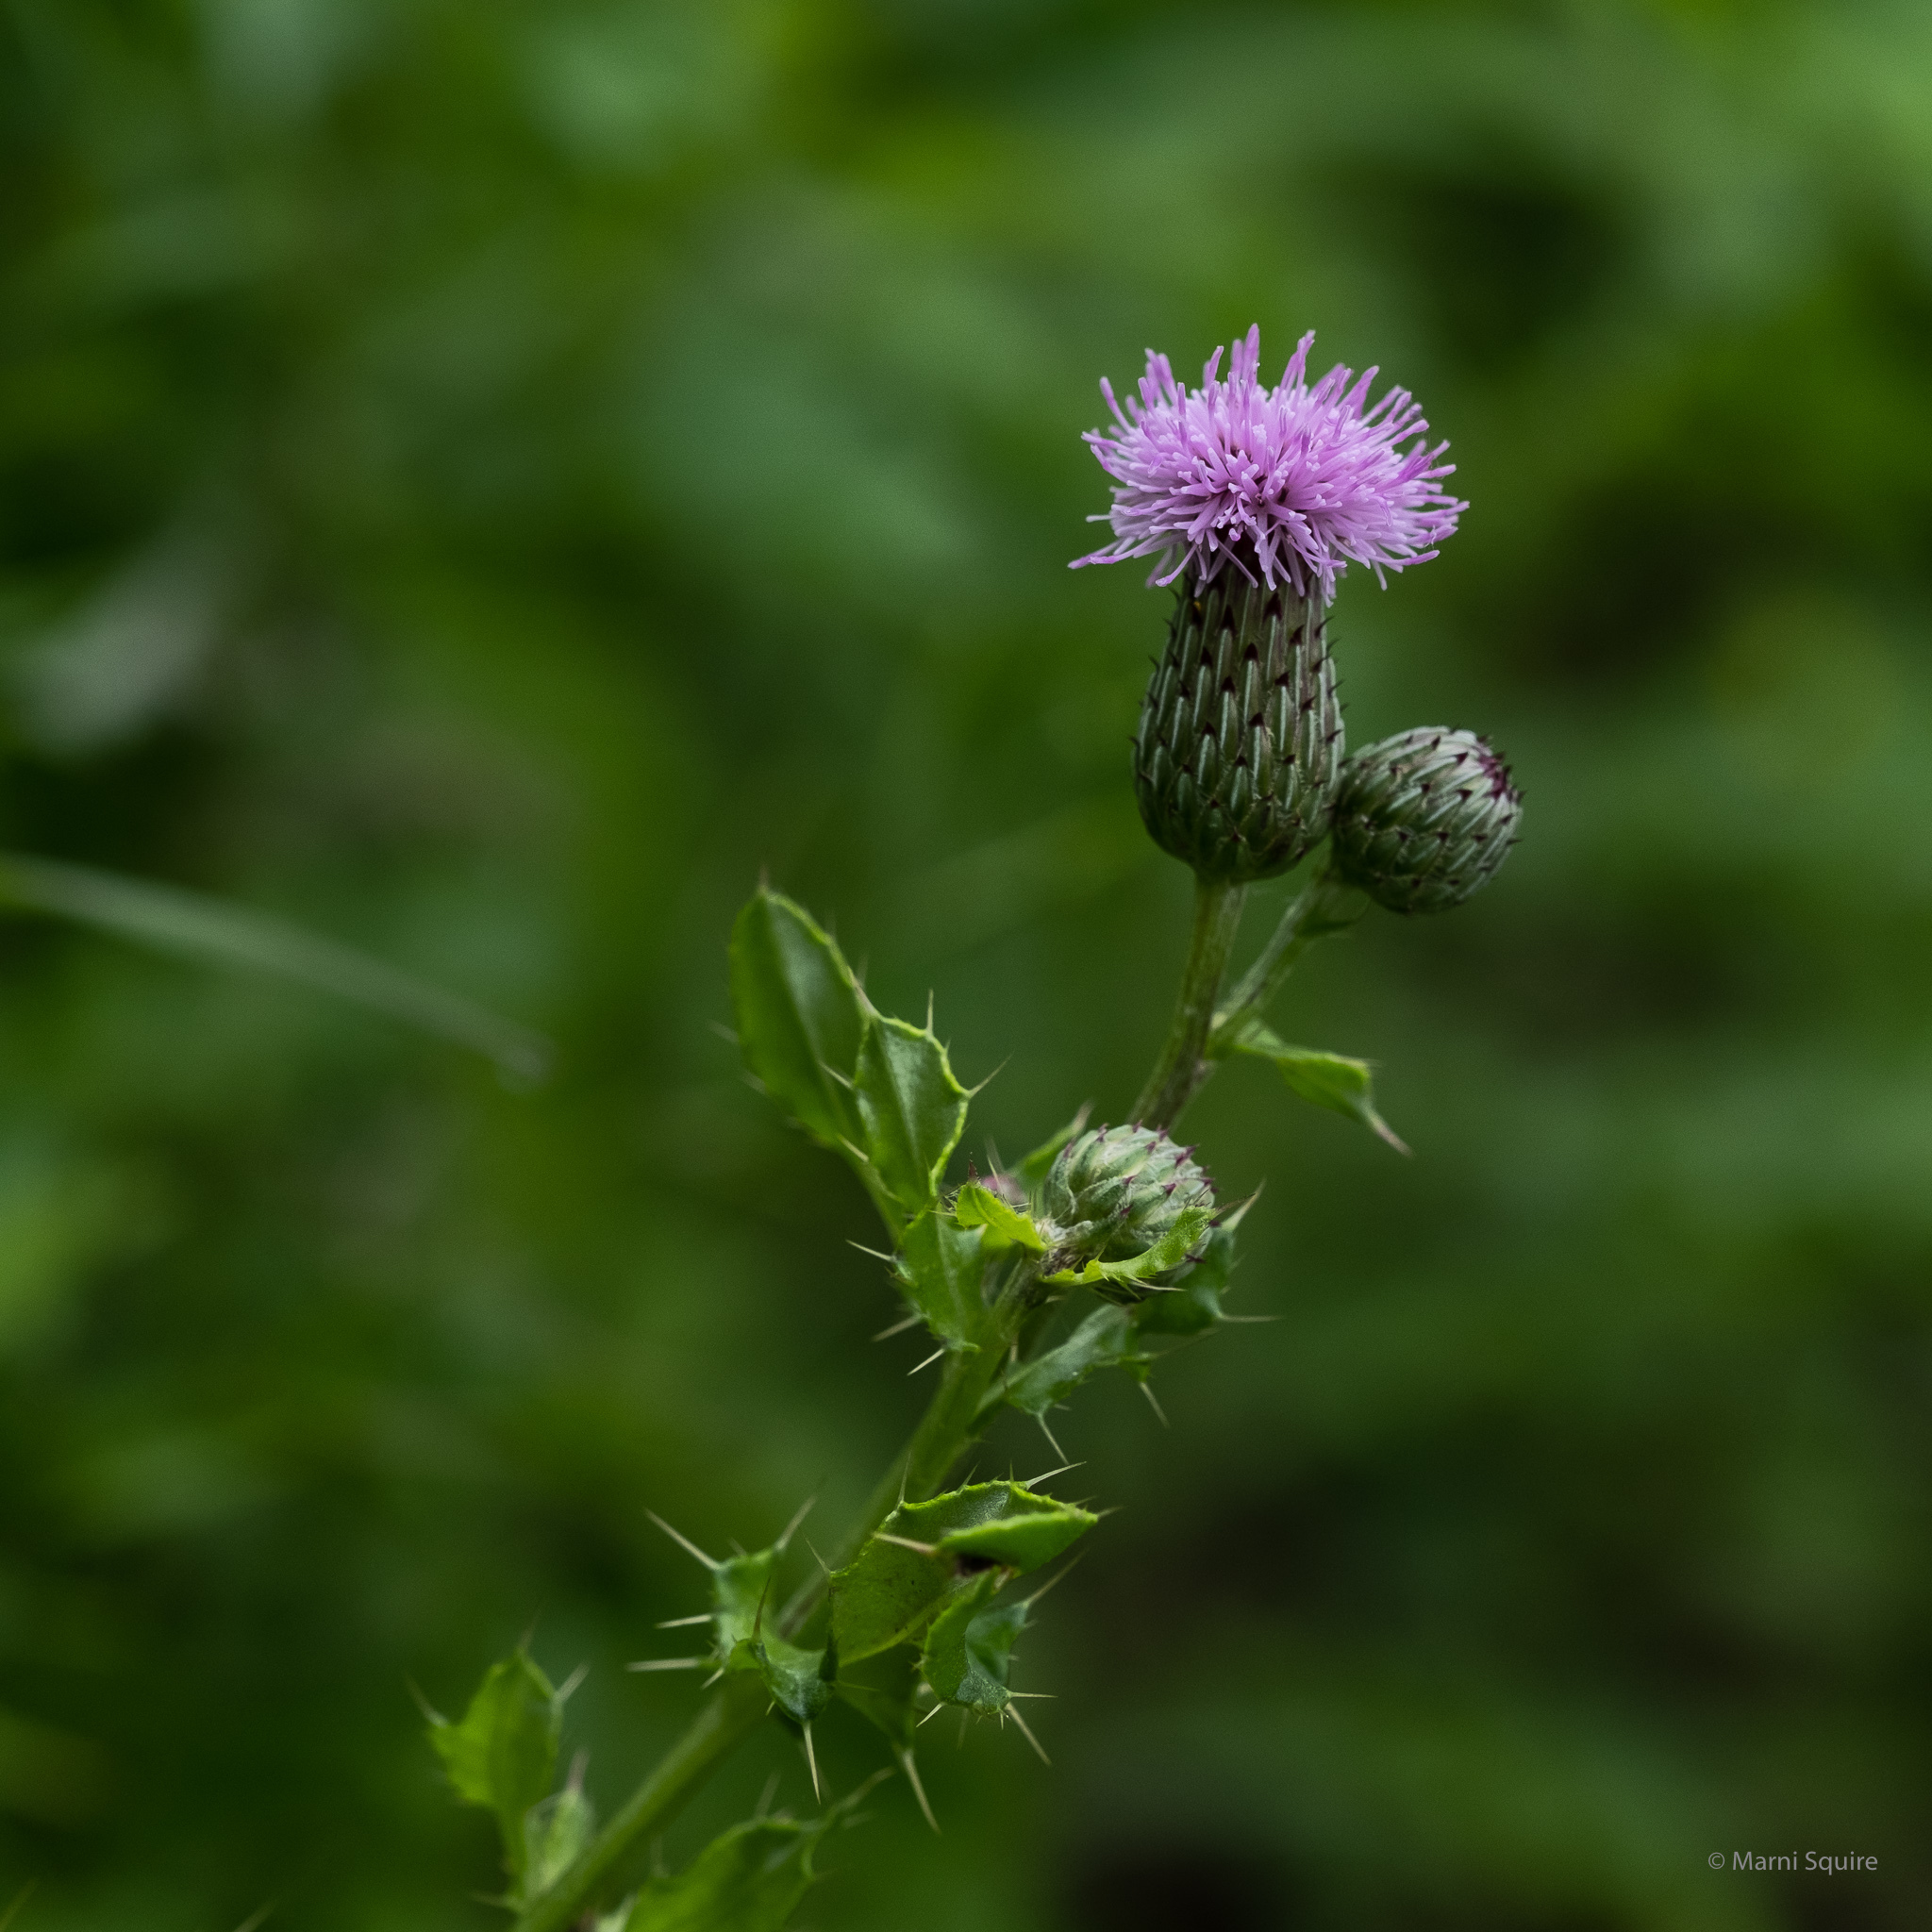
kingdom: Plantae
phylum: Tracheophyta
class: Magnoliopsida
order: Asterales
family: Asteraceae
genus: Cirsium
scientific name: Cirsium arvense
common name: Creeping thistle
